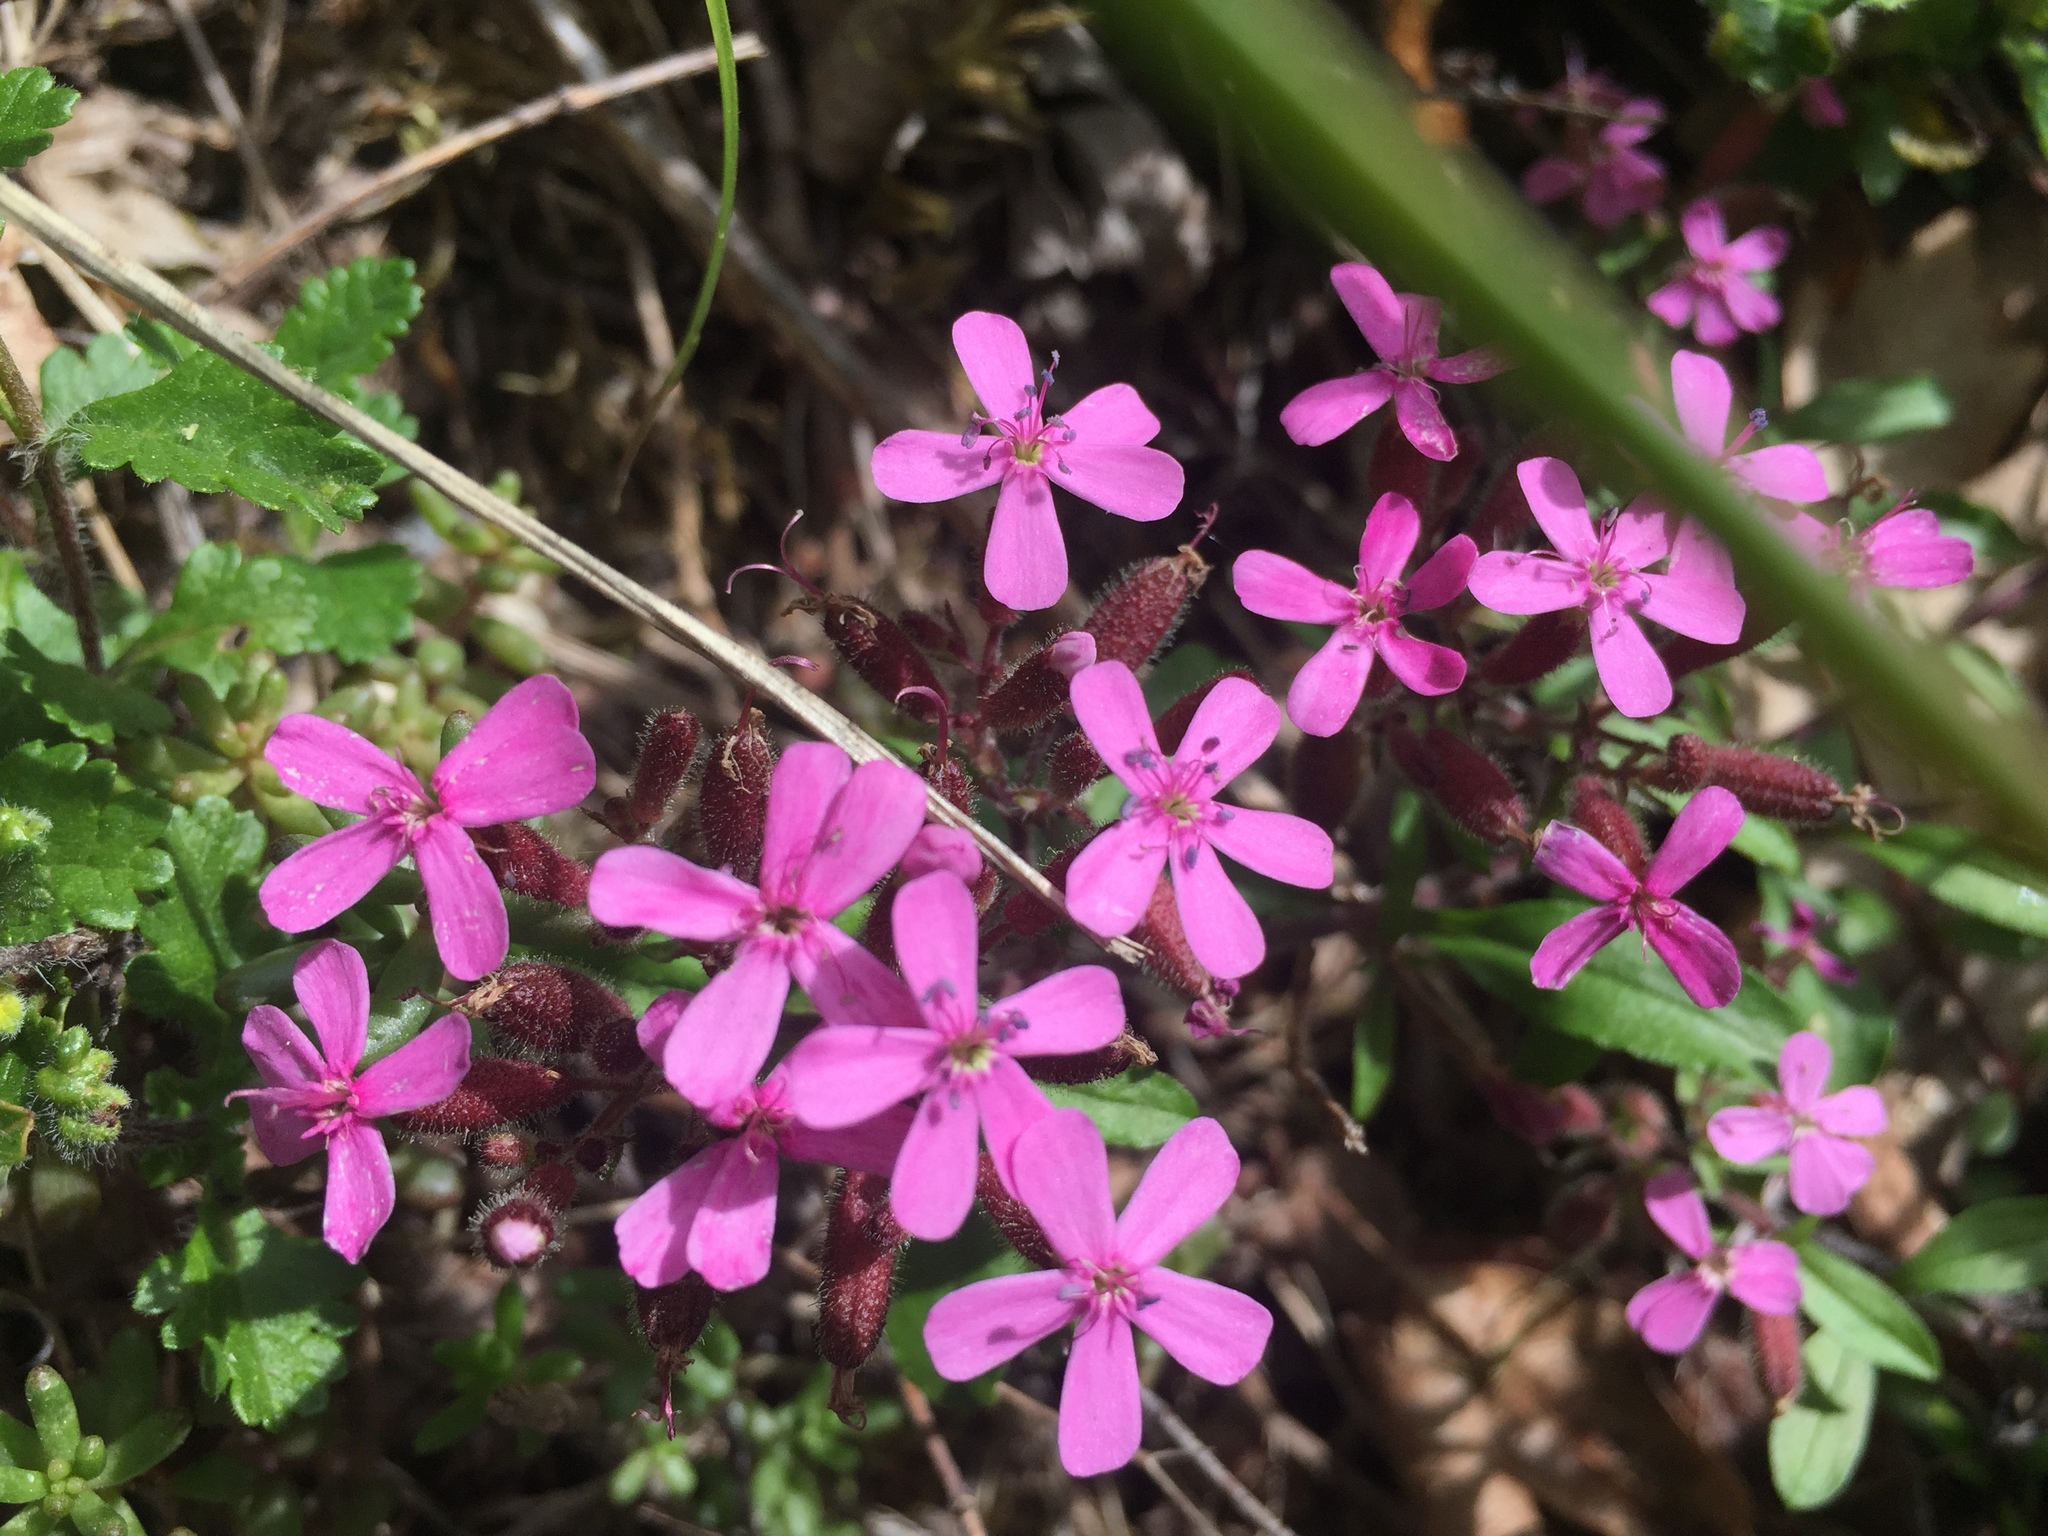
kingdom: Plantae
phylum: Tracheophyta
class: Magnoliopsida
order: Caryophyllales
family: Caryophyllaceae
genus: Saponaria
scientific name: Saponaria ocymoides
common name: Rock soapwort
